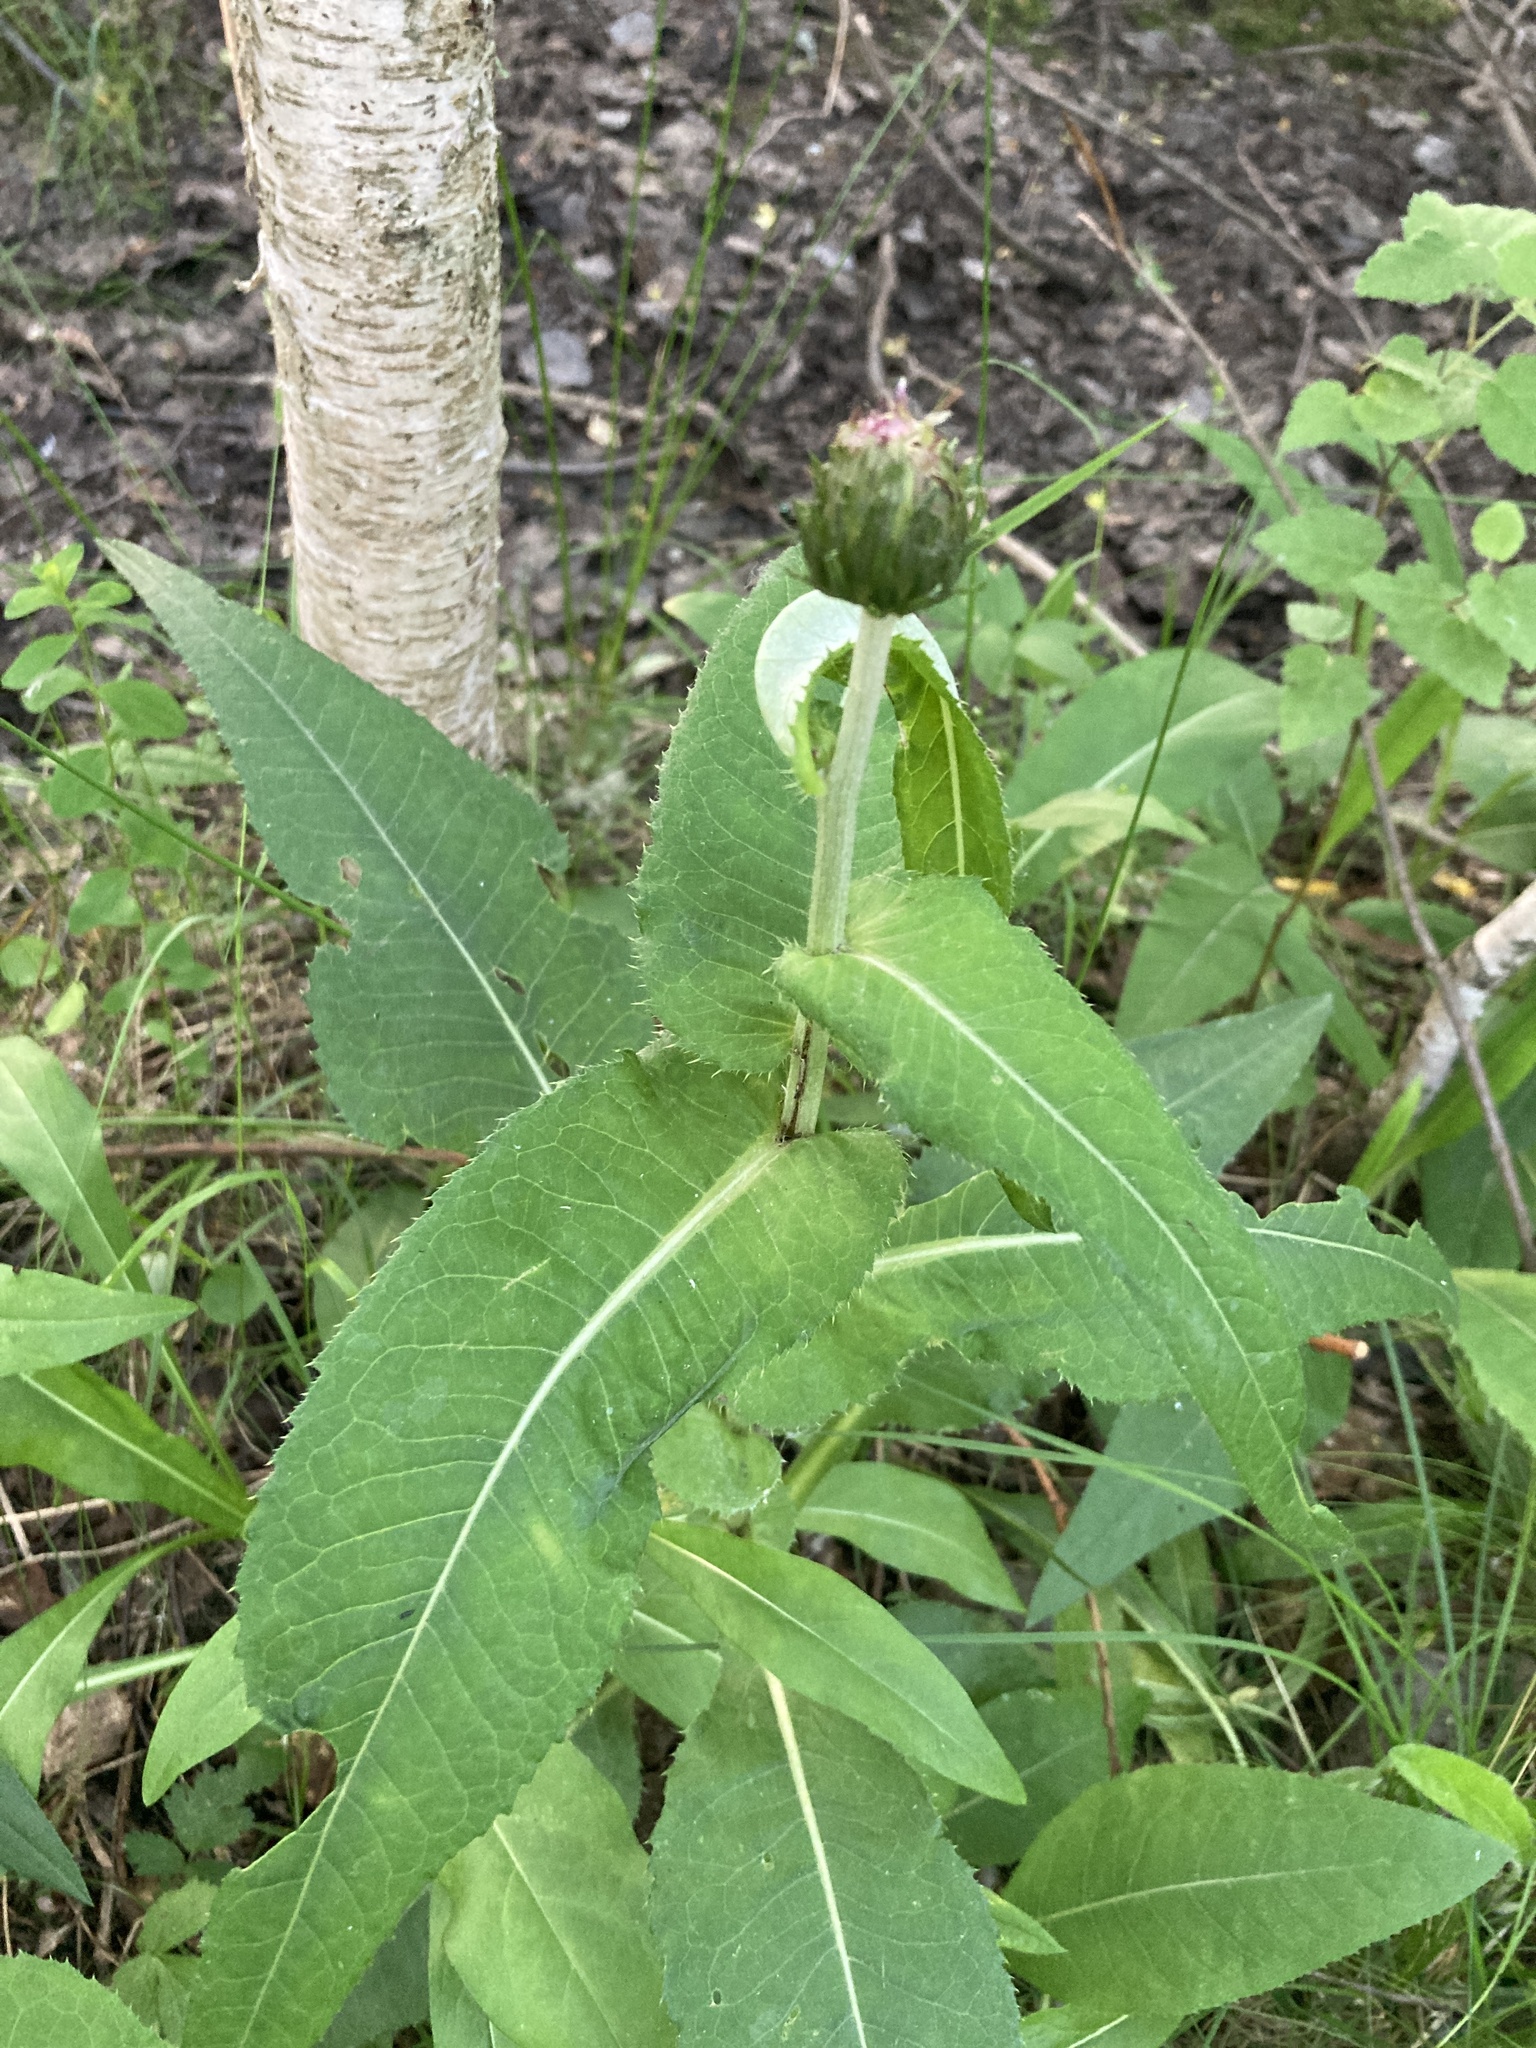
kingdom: Plantae
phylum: Tracheophyta
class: Magnoliopsida
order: Asterales
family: Asteraceae
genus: Cirsium
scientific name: Cirsium heterophyllum
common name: Melancholy thistle
